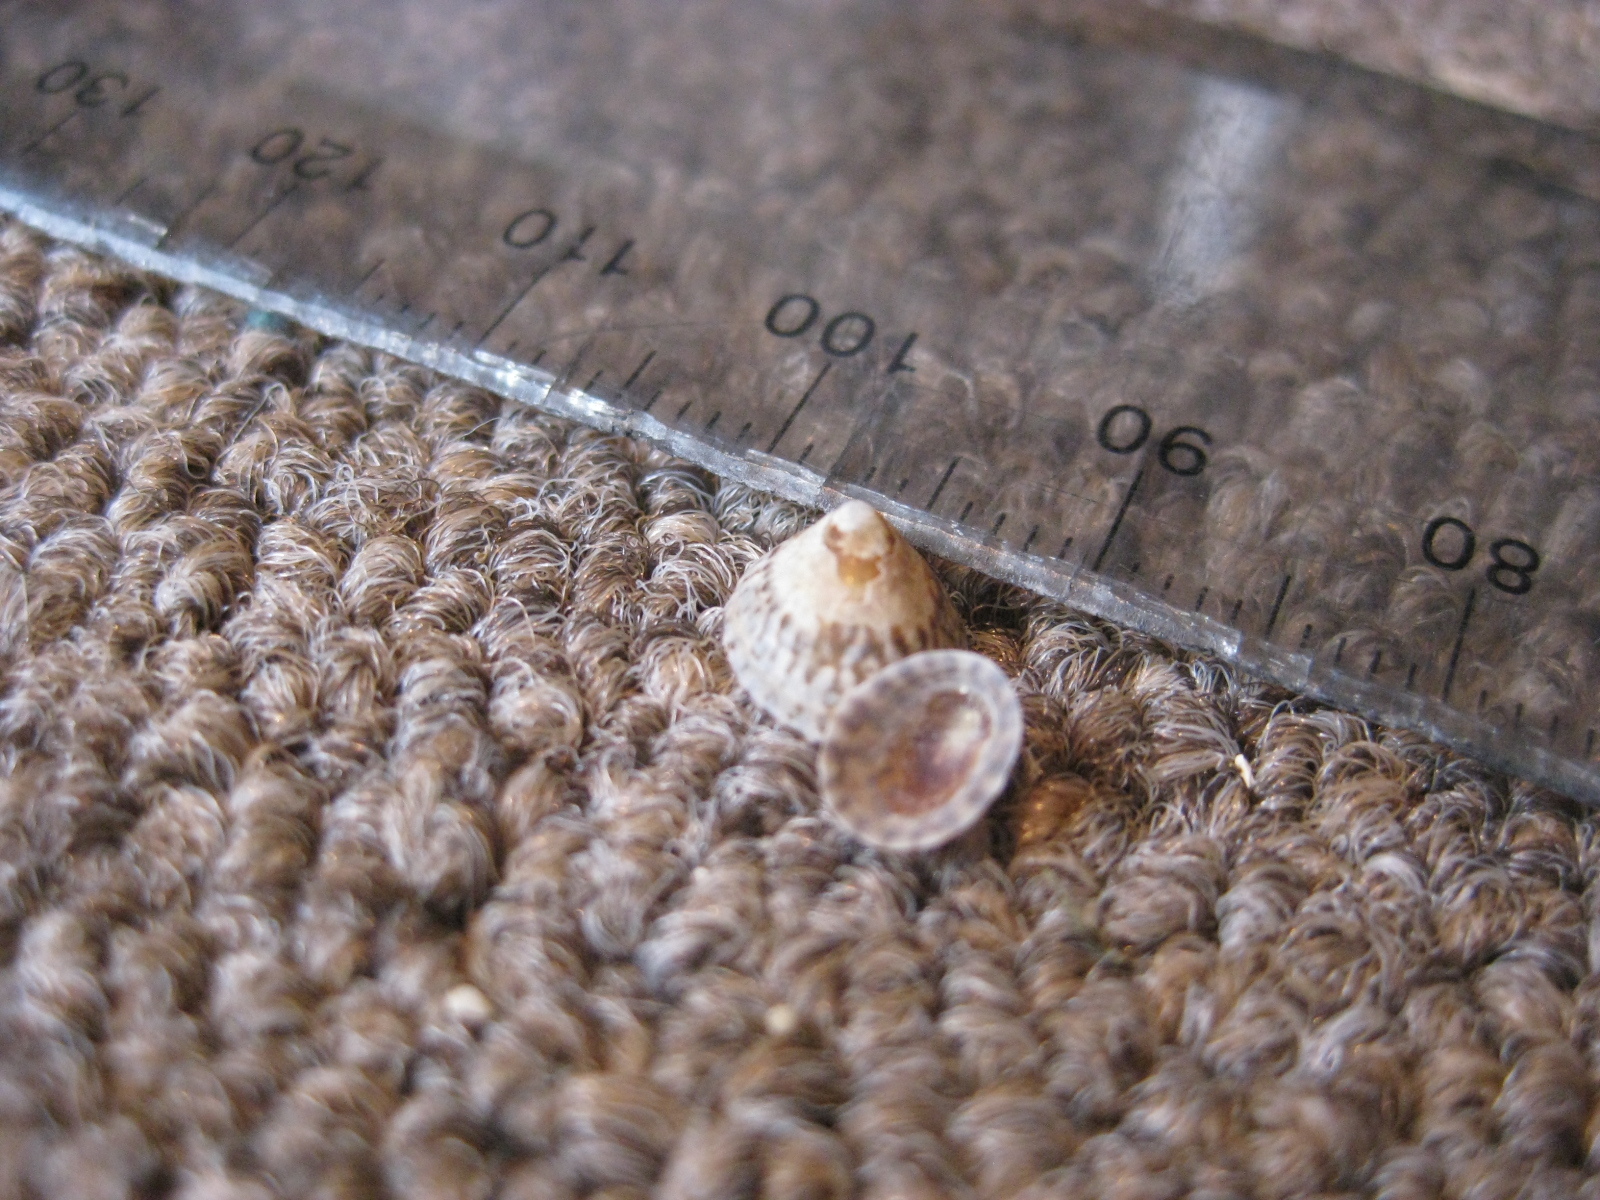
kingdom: Animalia
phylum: Mollusca
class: Gastropoda
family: Lottiidae
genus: Notoacmea
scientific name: Notoacmea potae
